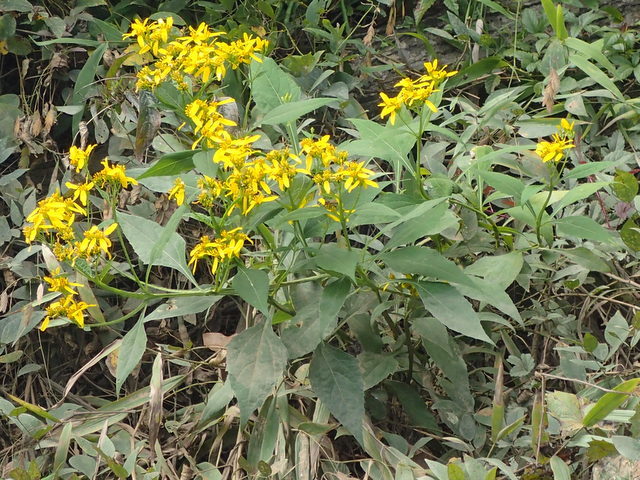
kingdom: Plantae
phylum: Tracheophyta
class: Magnoliopsida
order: Asterales
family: Asteraceae
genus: Verbesina
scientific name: Verbesina occidentalis
